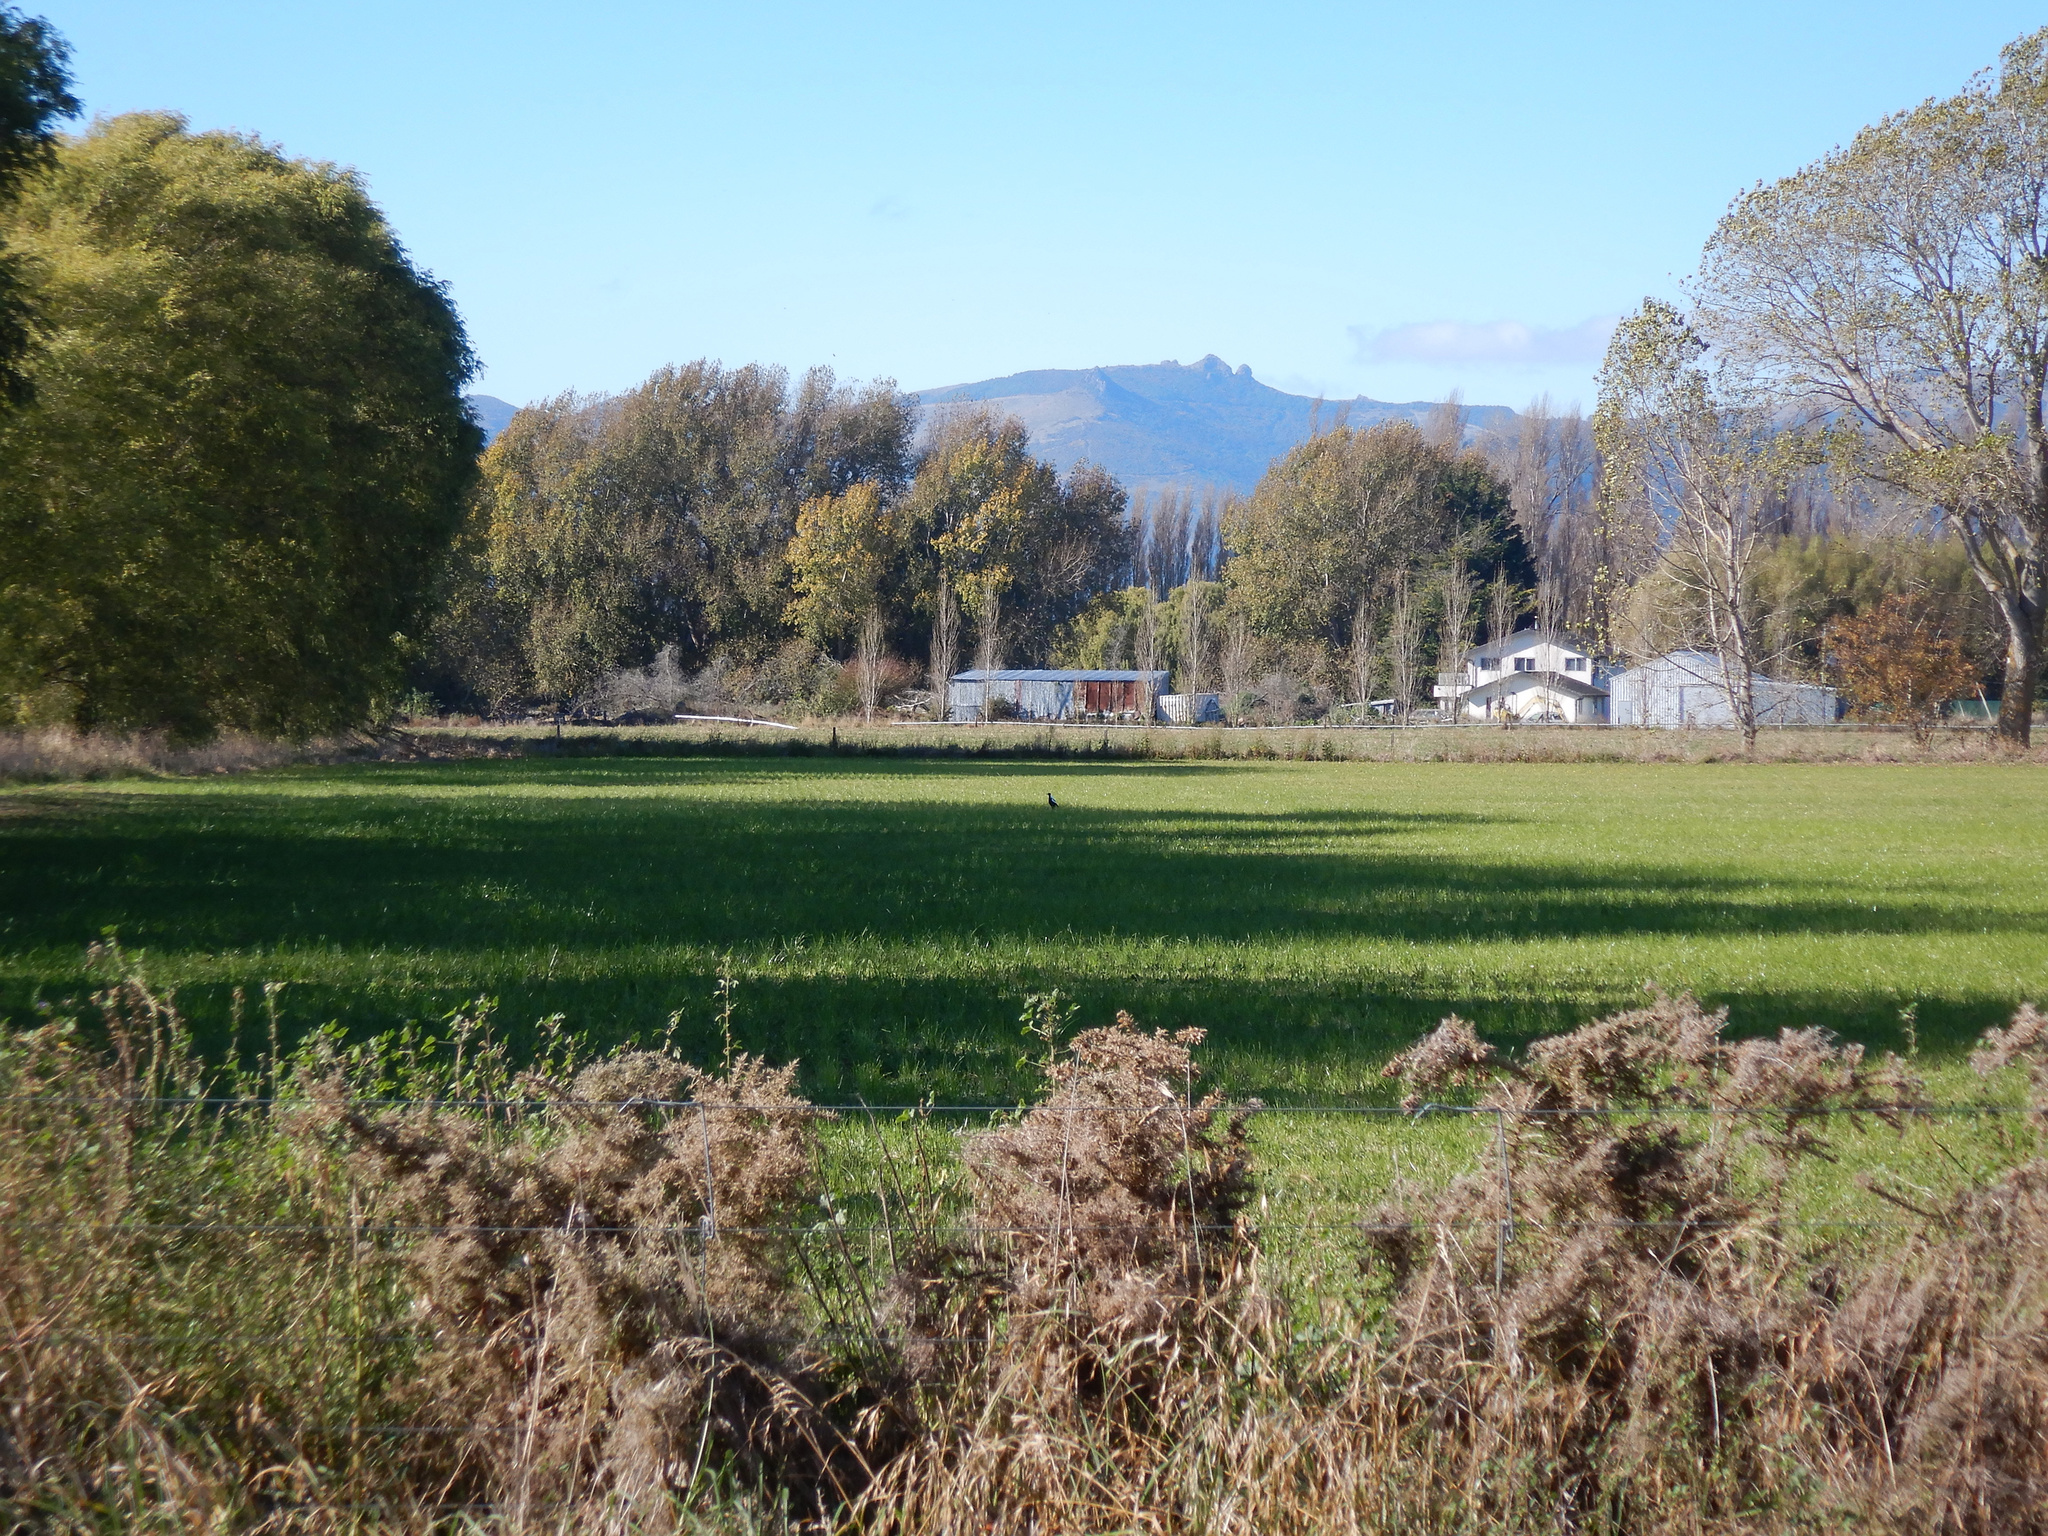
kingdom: Animalia
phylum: Chordata
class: Aves
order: Passeriformes
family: Cracticidae
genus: Gymnorhina
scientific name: Gymnorhina tibicen
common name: Australian magpie
